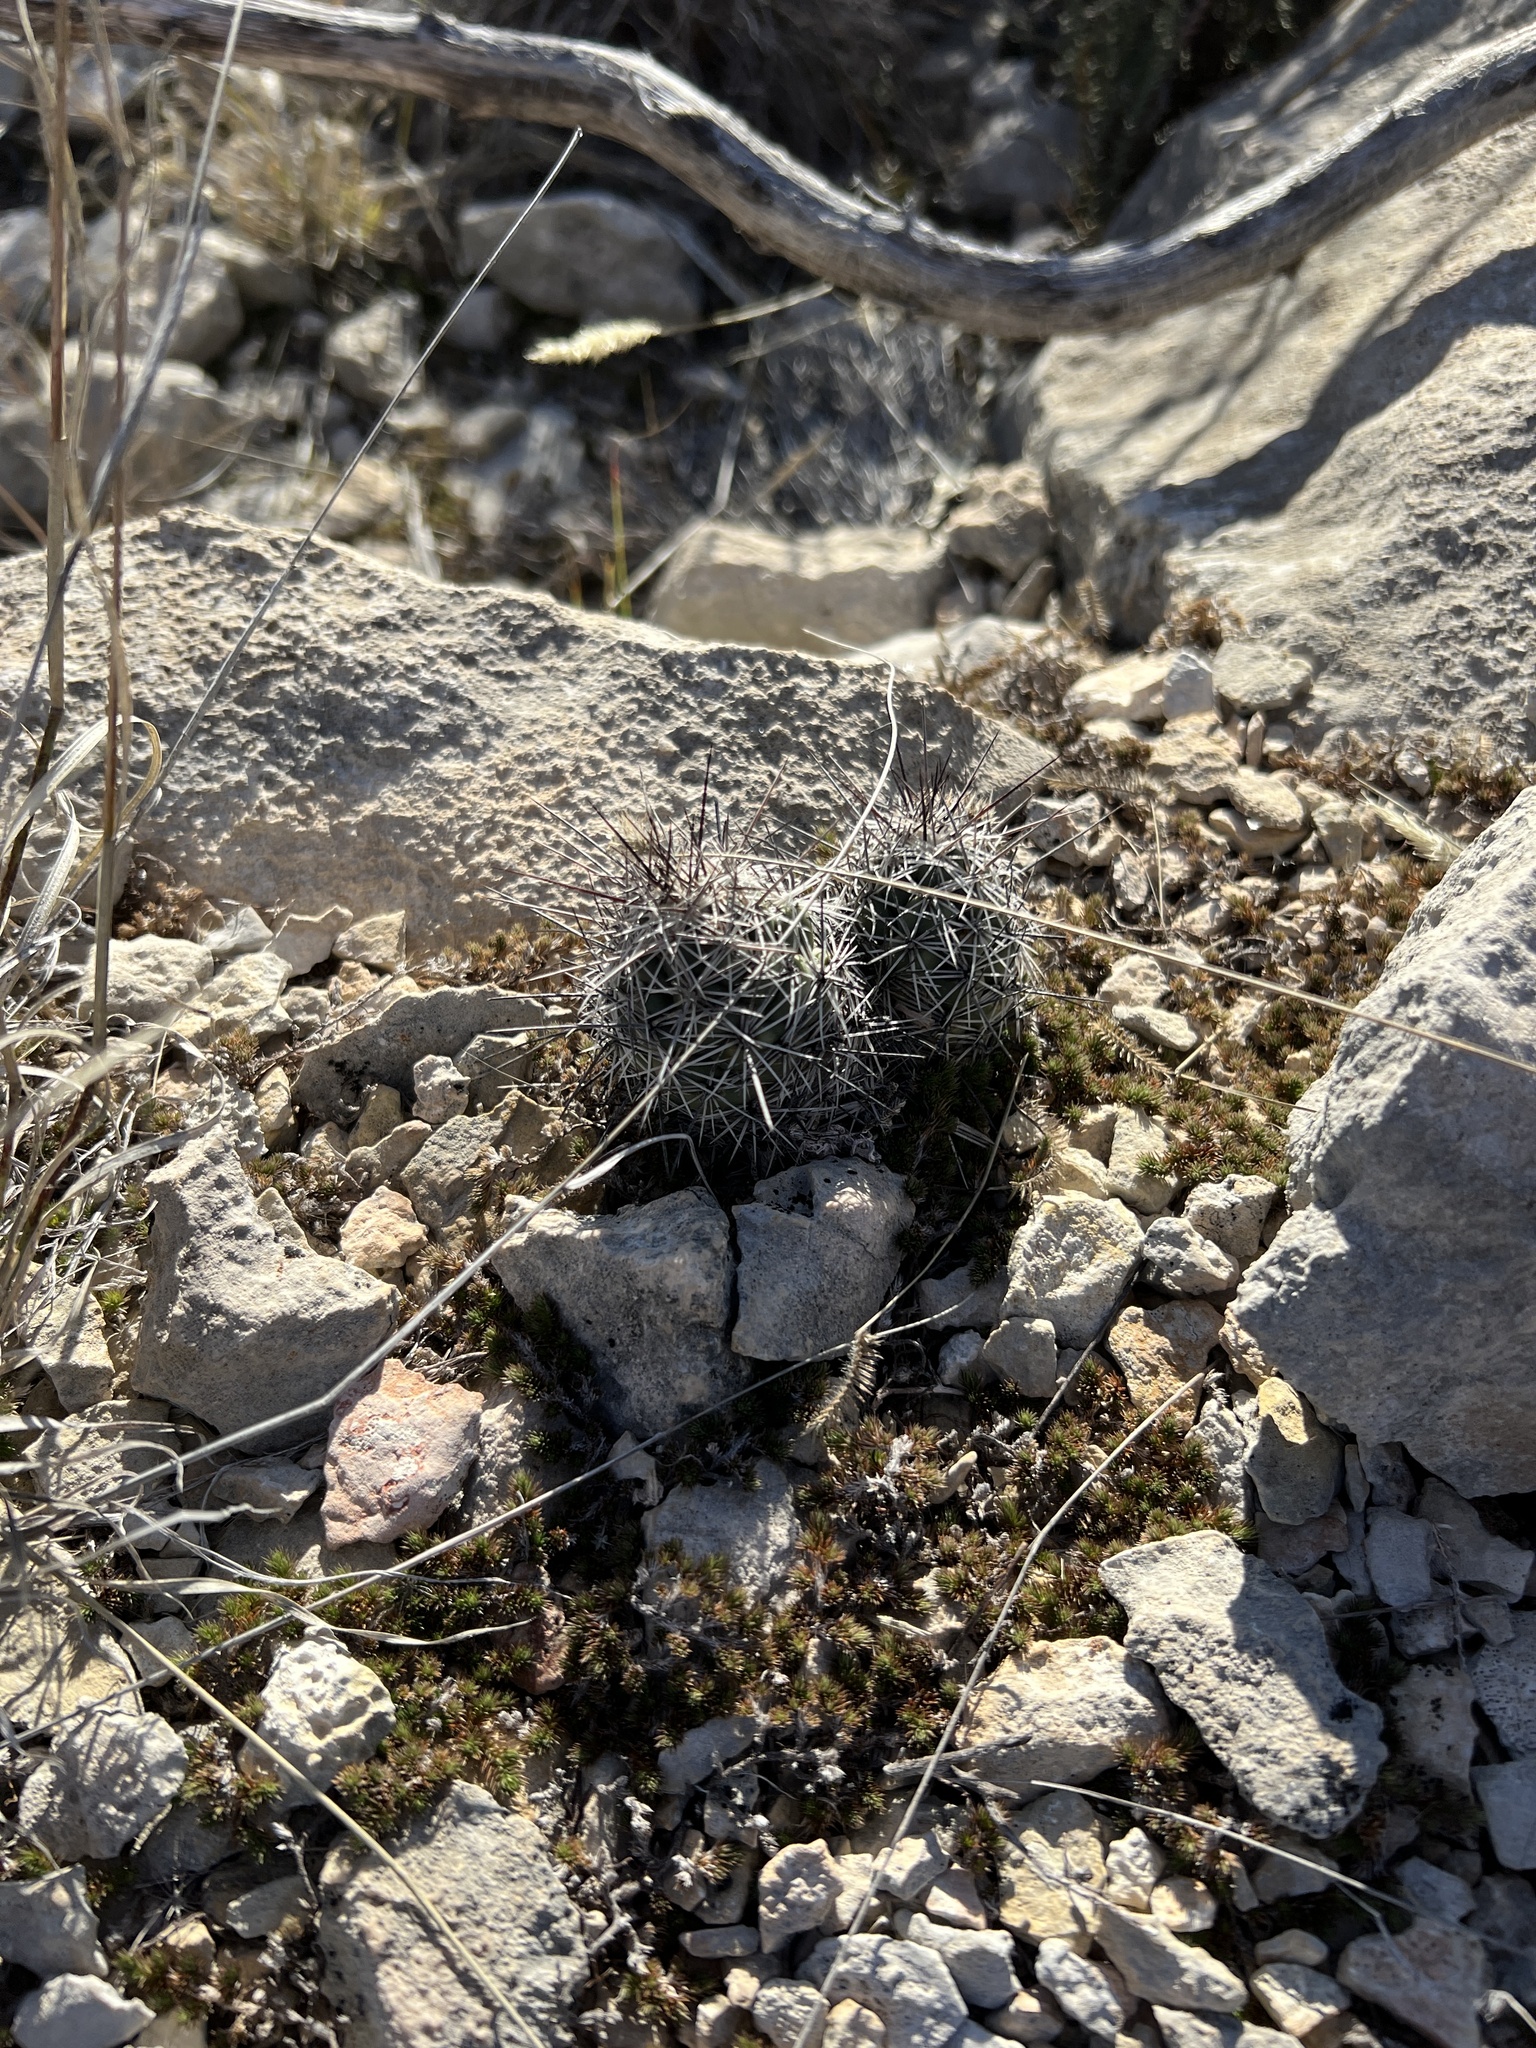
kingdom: Plantae
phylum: Tracheophyta
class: Magnoliopsida
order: Caryophyllales
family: Cactaceae
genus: Cochemiea
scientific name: Cochemiea conoidea
